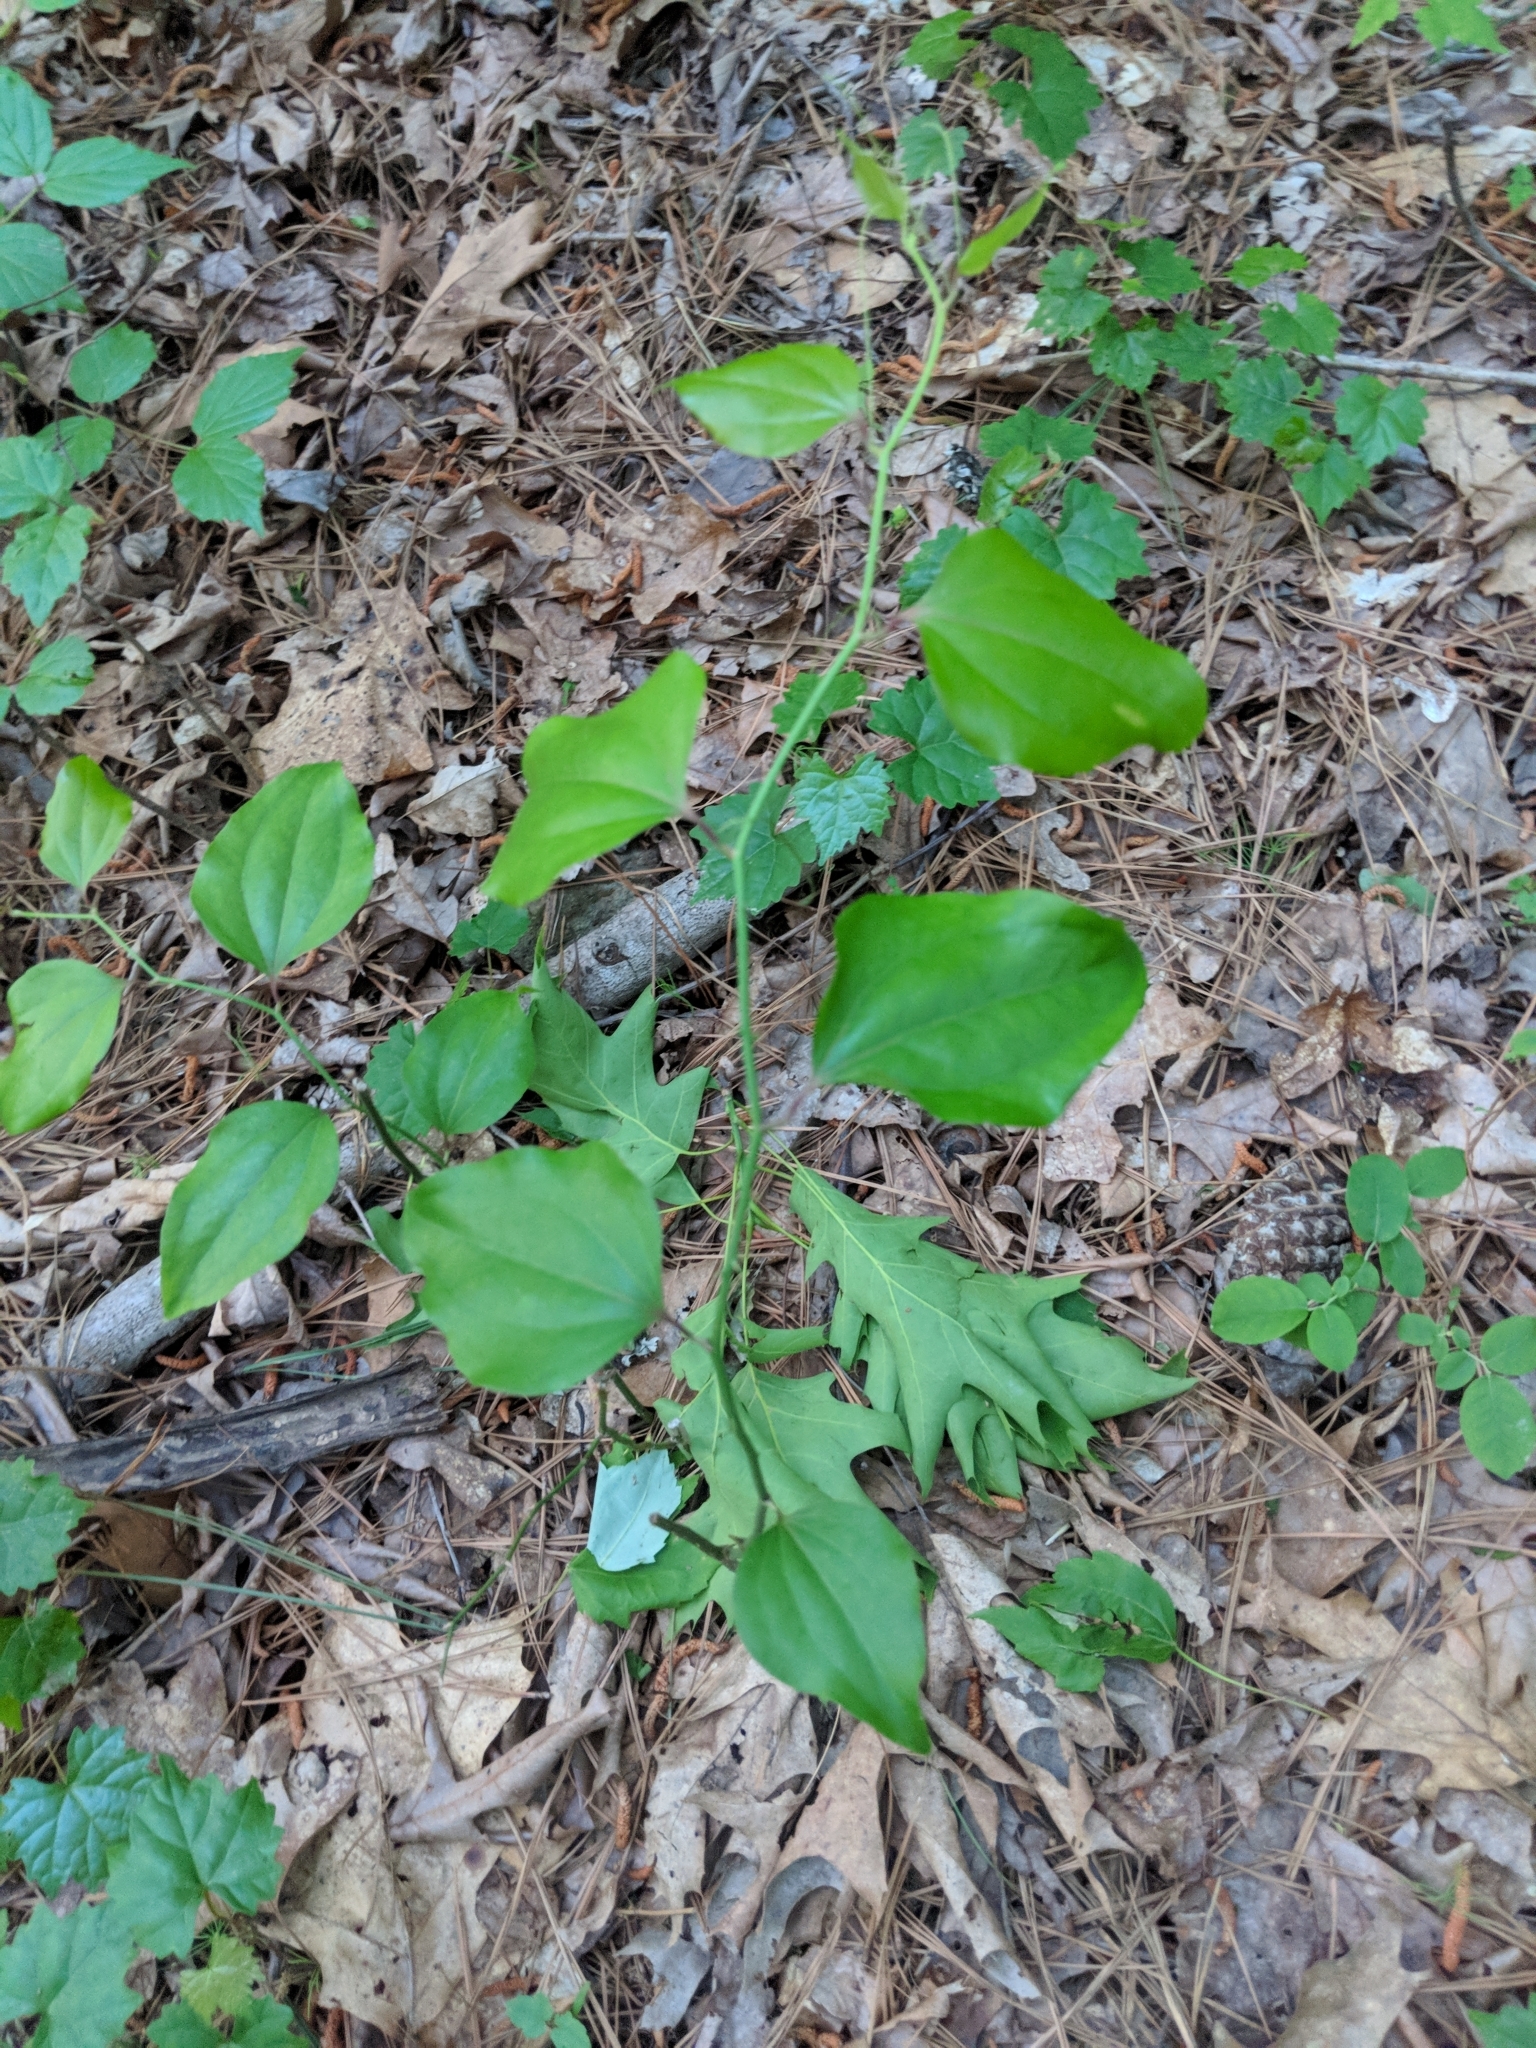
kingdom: Plantae
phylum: Tracheophyta
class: Liliopsida
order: Liliales
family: Smilacaceae
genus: Smilax
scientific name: Smilax rotundifolia
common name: Bullbriar
